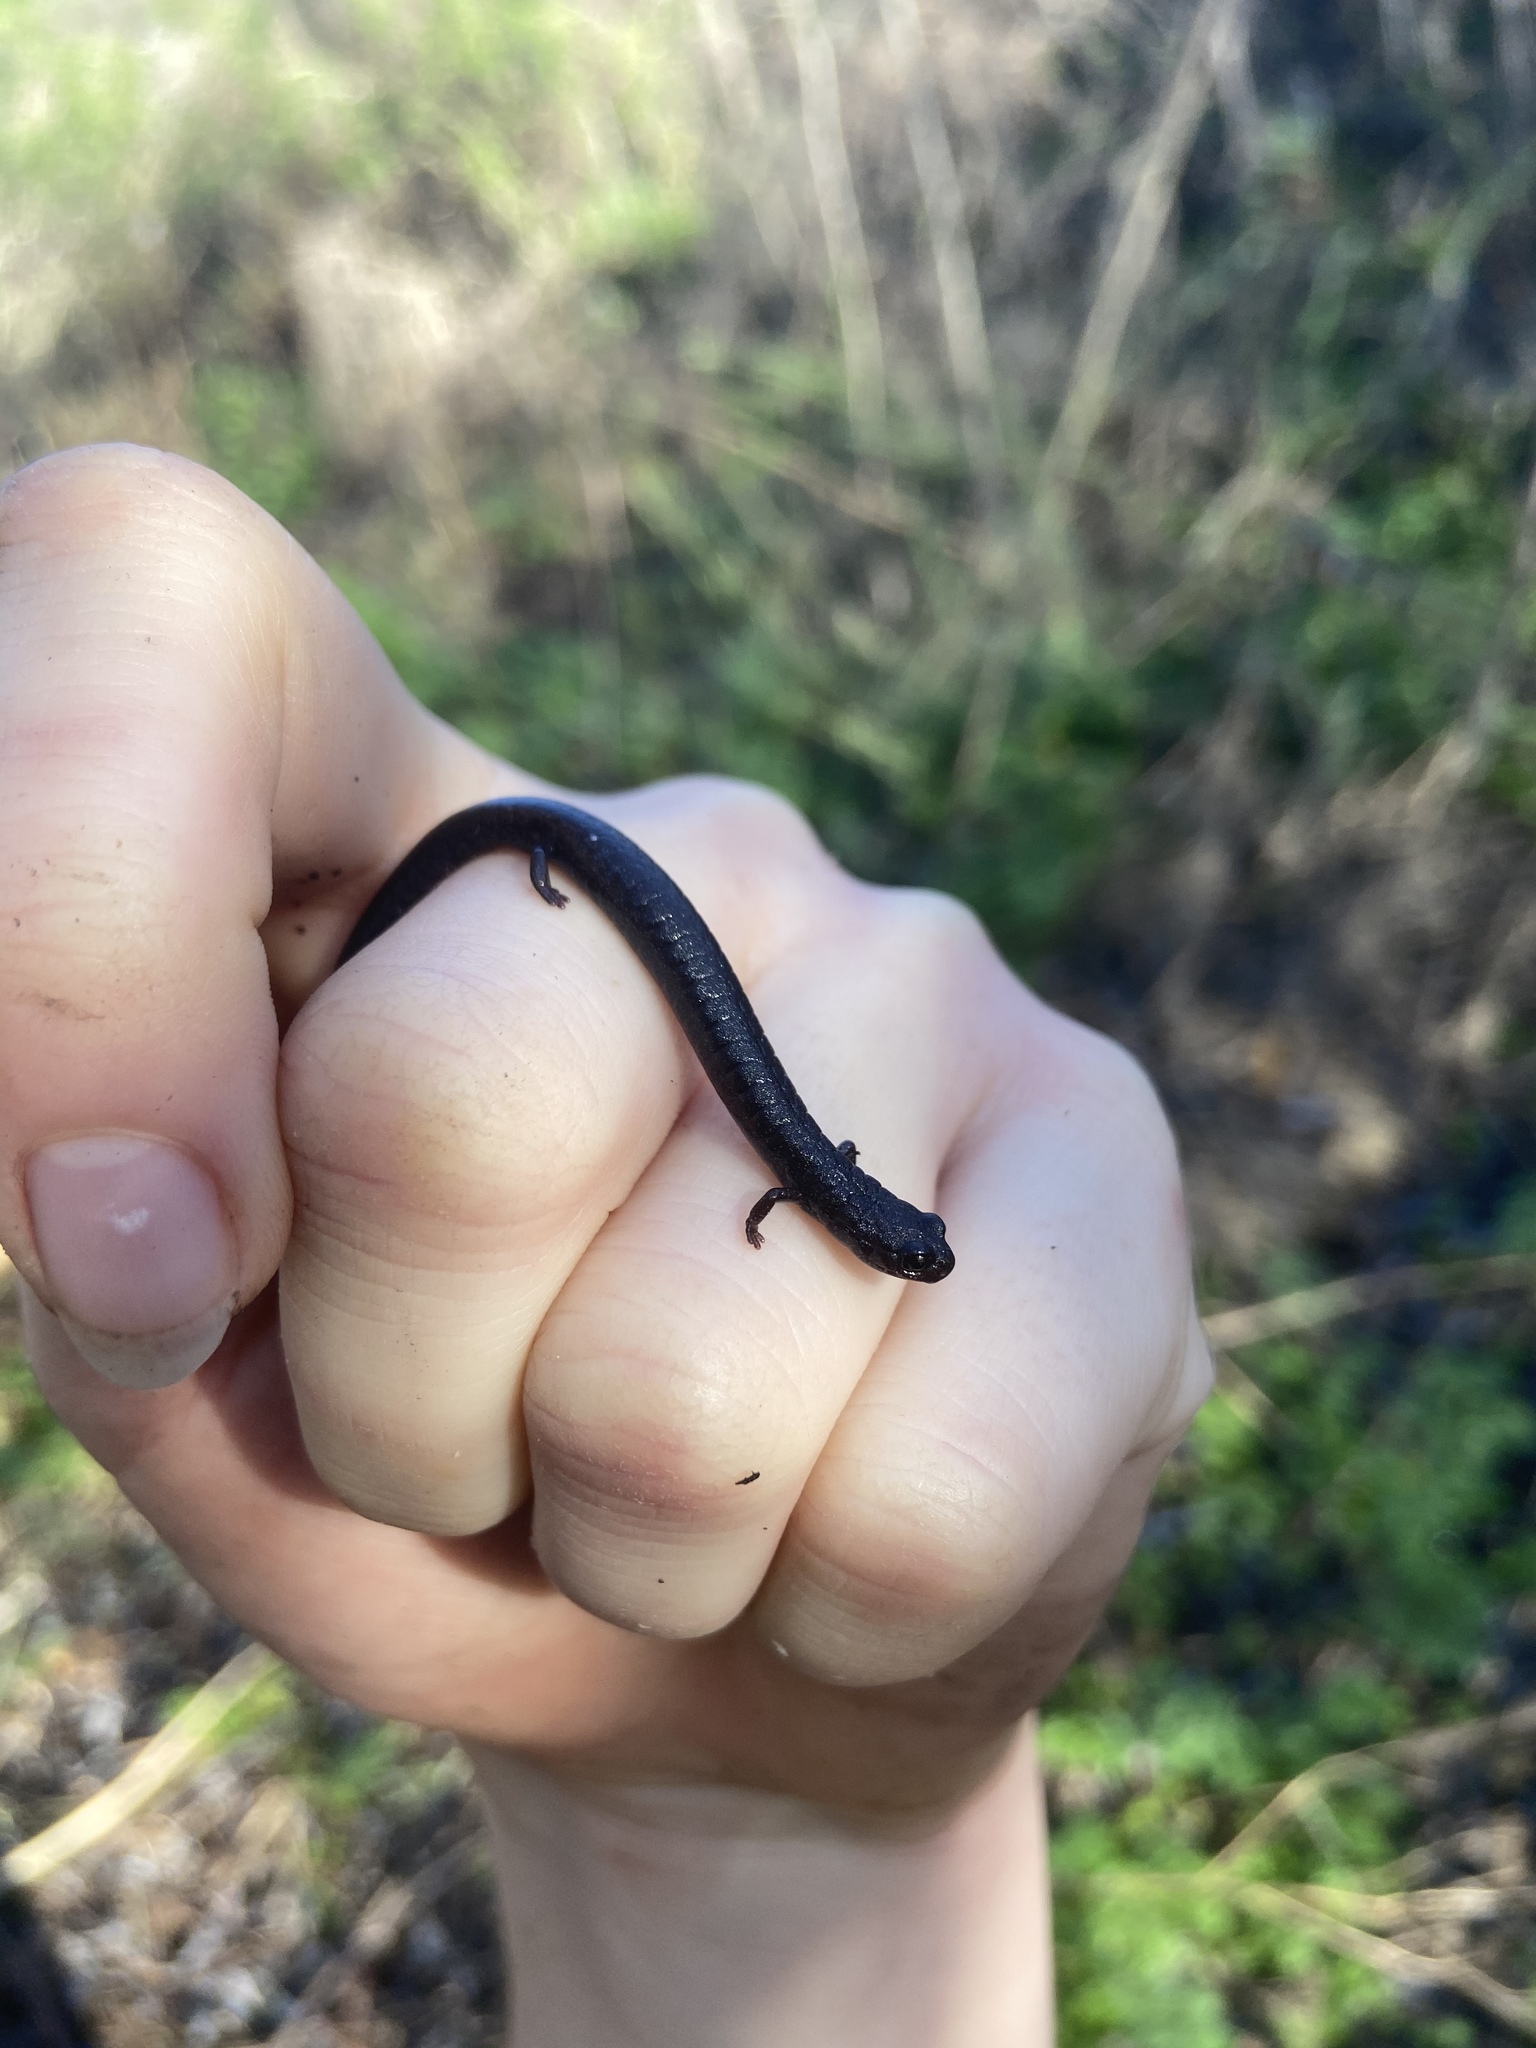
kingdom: Animalia
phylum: Chordata
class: Amphibia
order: Caudata
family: Plethodontidae
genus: Batrachoseps
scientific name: Batrachoseps attenuatus
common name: California slender salamander
